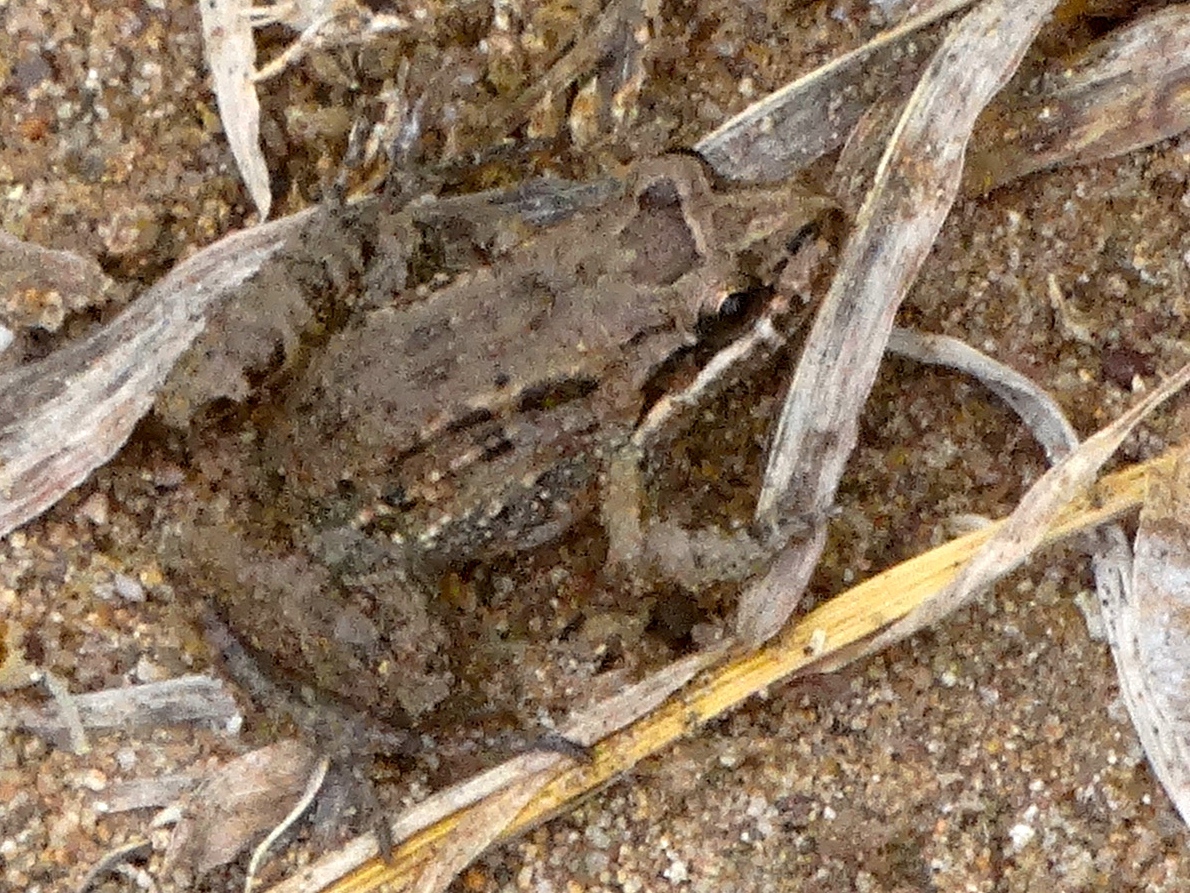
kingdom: Animalia
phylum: Chordata
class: Amphibia
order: Anura
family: Leptodactylidae
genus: Leptodactylus
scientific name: Leptodactylus melanonotus
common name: Fringe-toed foamfrog
